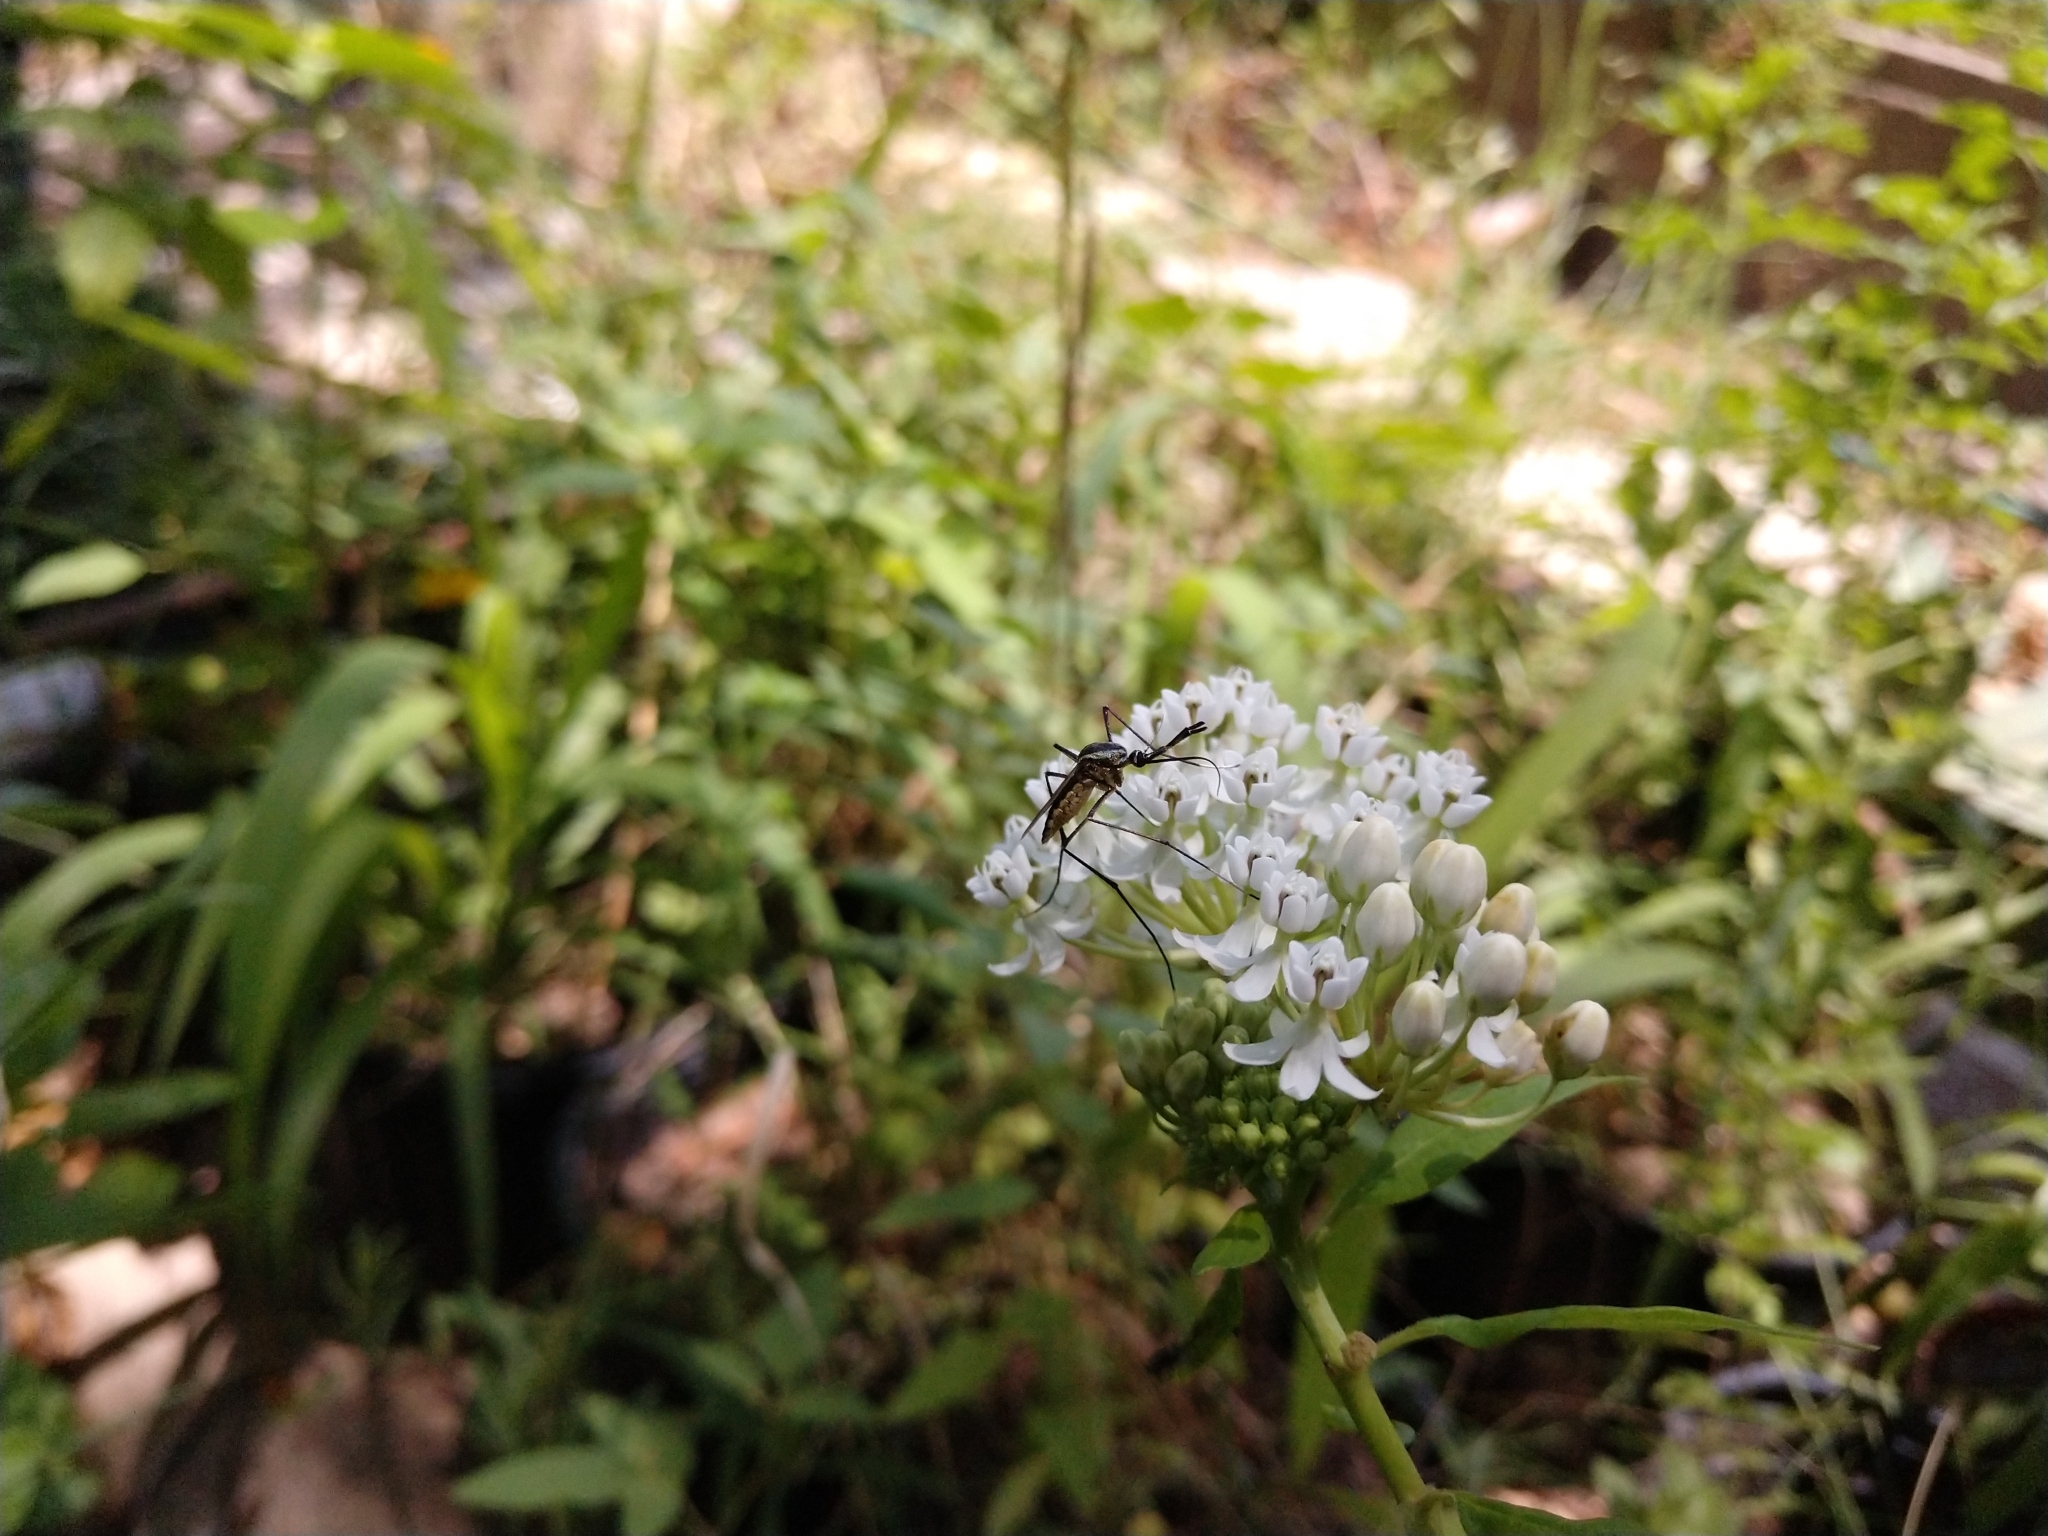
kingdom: Animalia
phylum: Arthropoda
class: Insecta
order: Diptera
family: Culicidae
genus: Toxorhynchites
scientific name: Toxorhynchites rutilus
